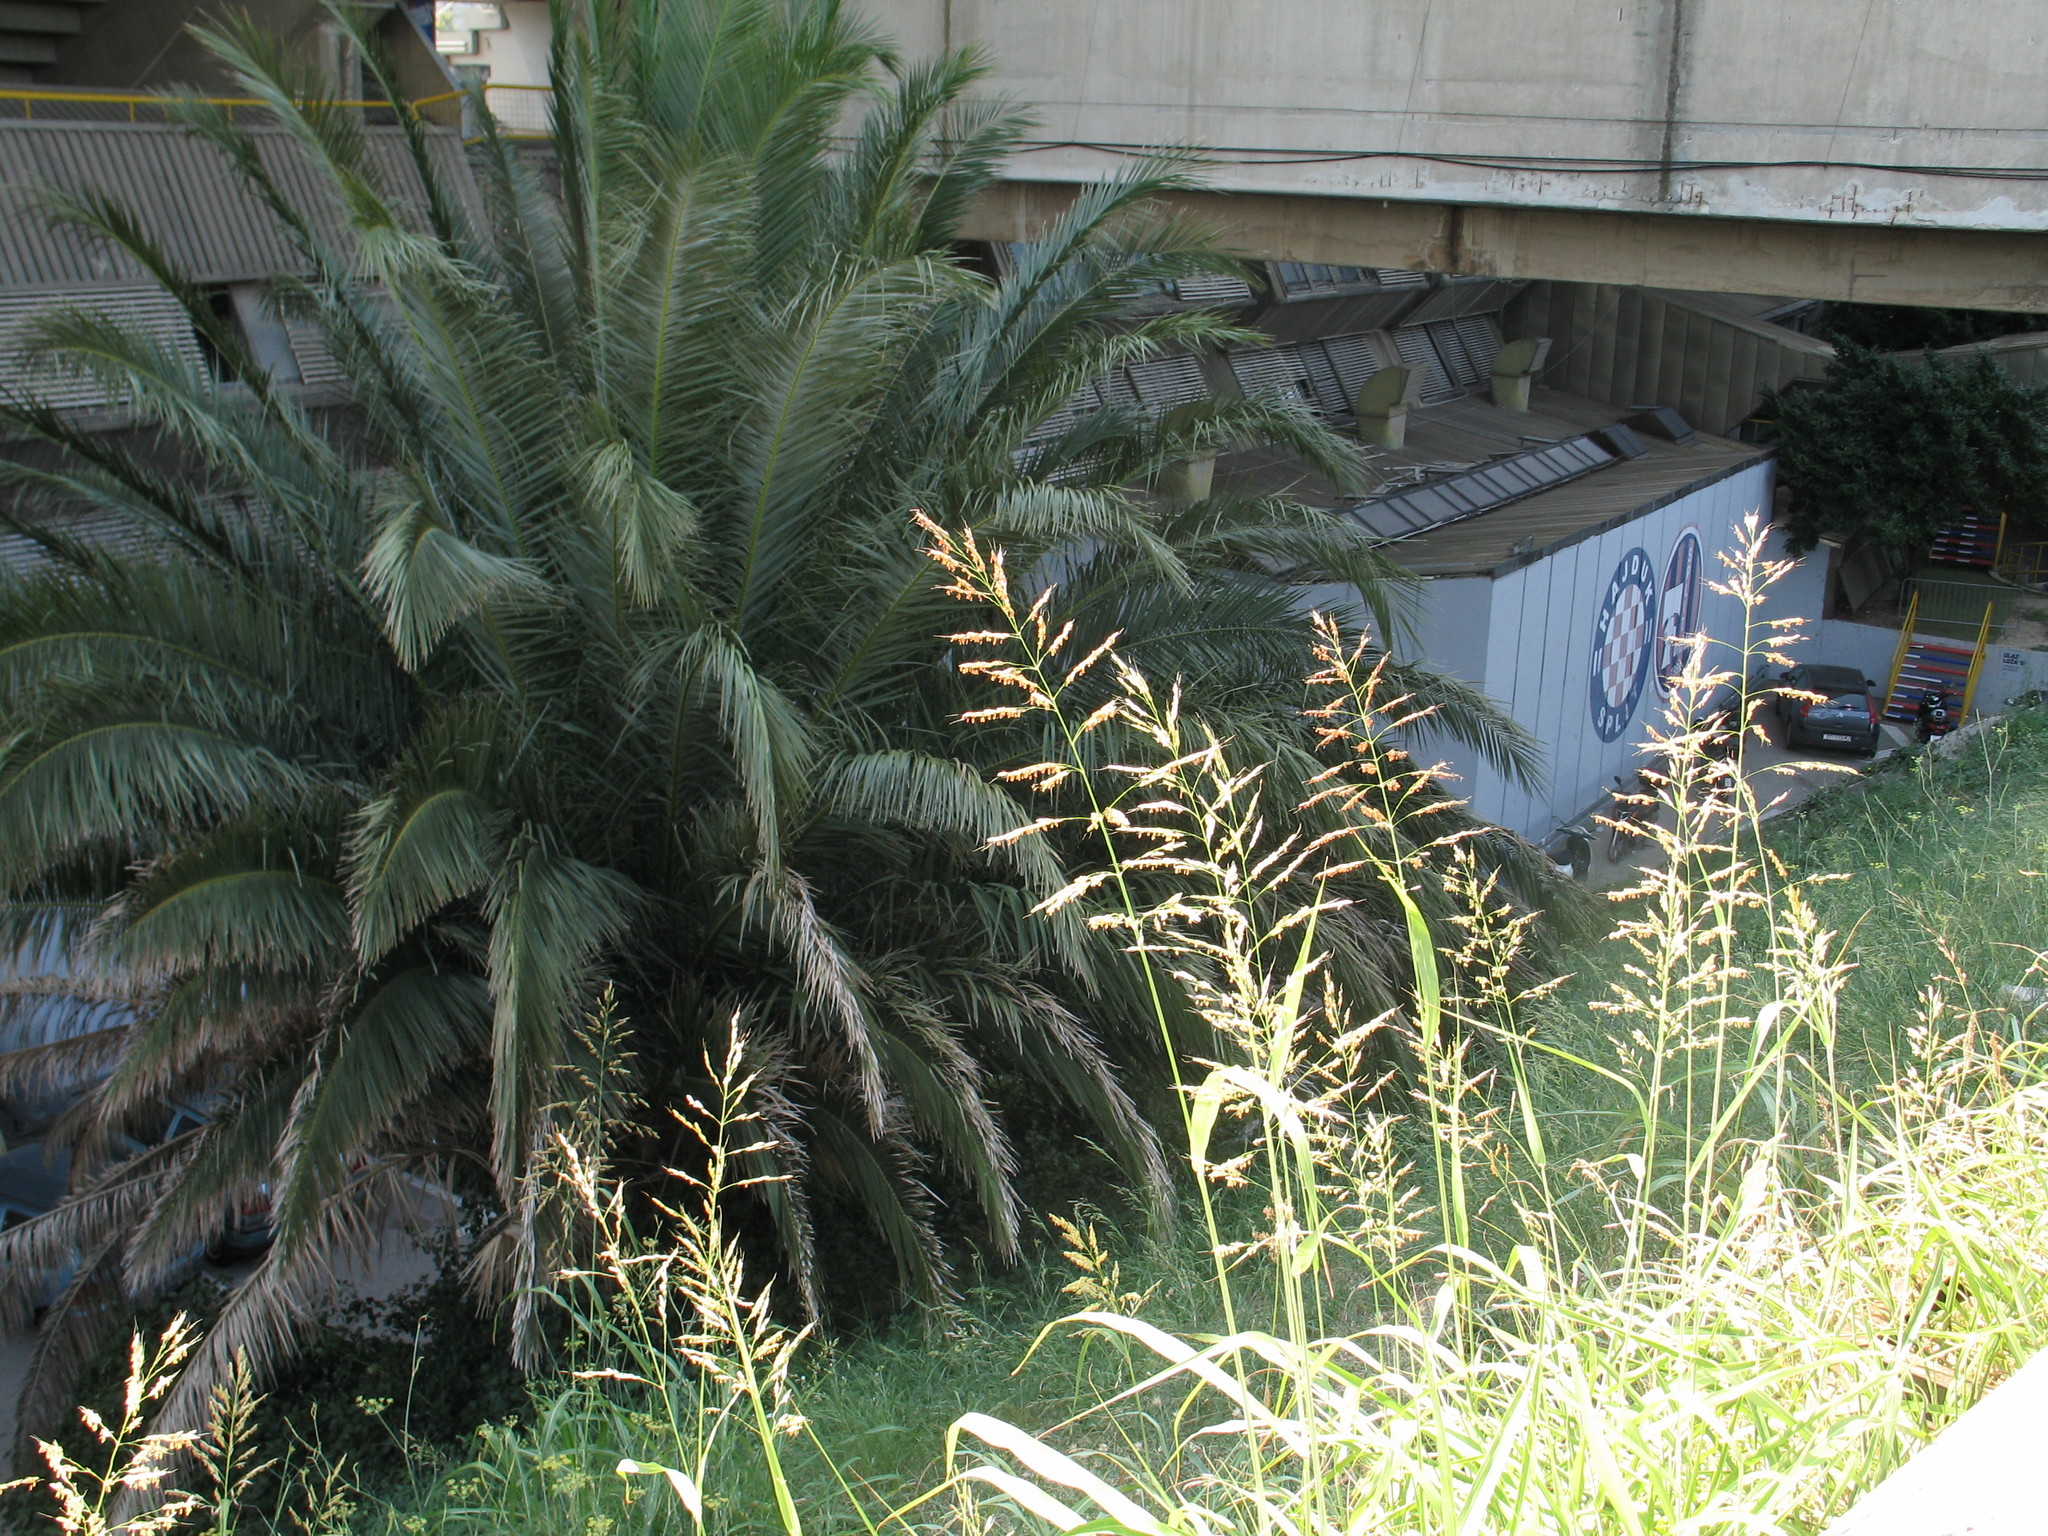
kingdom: Plantae
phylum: Tracheophyta
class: Liliopsida
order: Poales
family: Poaceae
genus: Sorghum
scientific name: Sorghum halepense
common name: Johnson-grass
